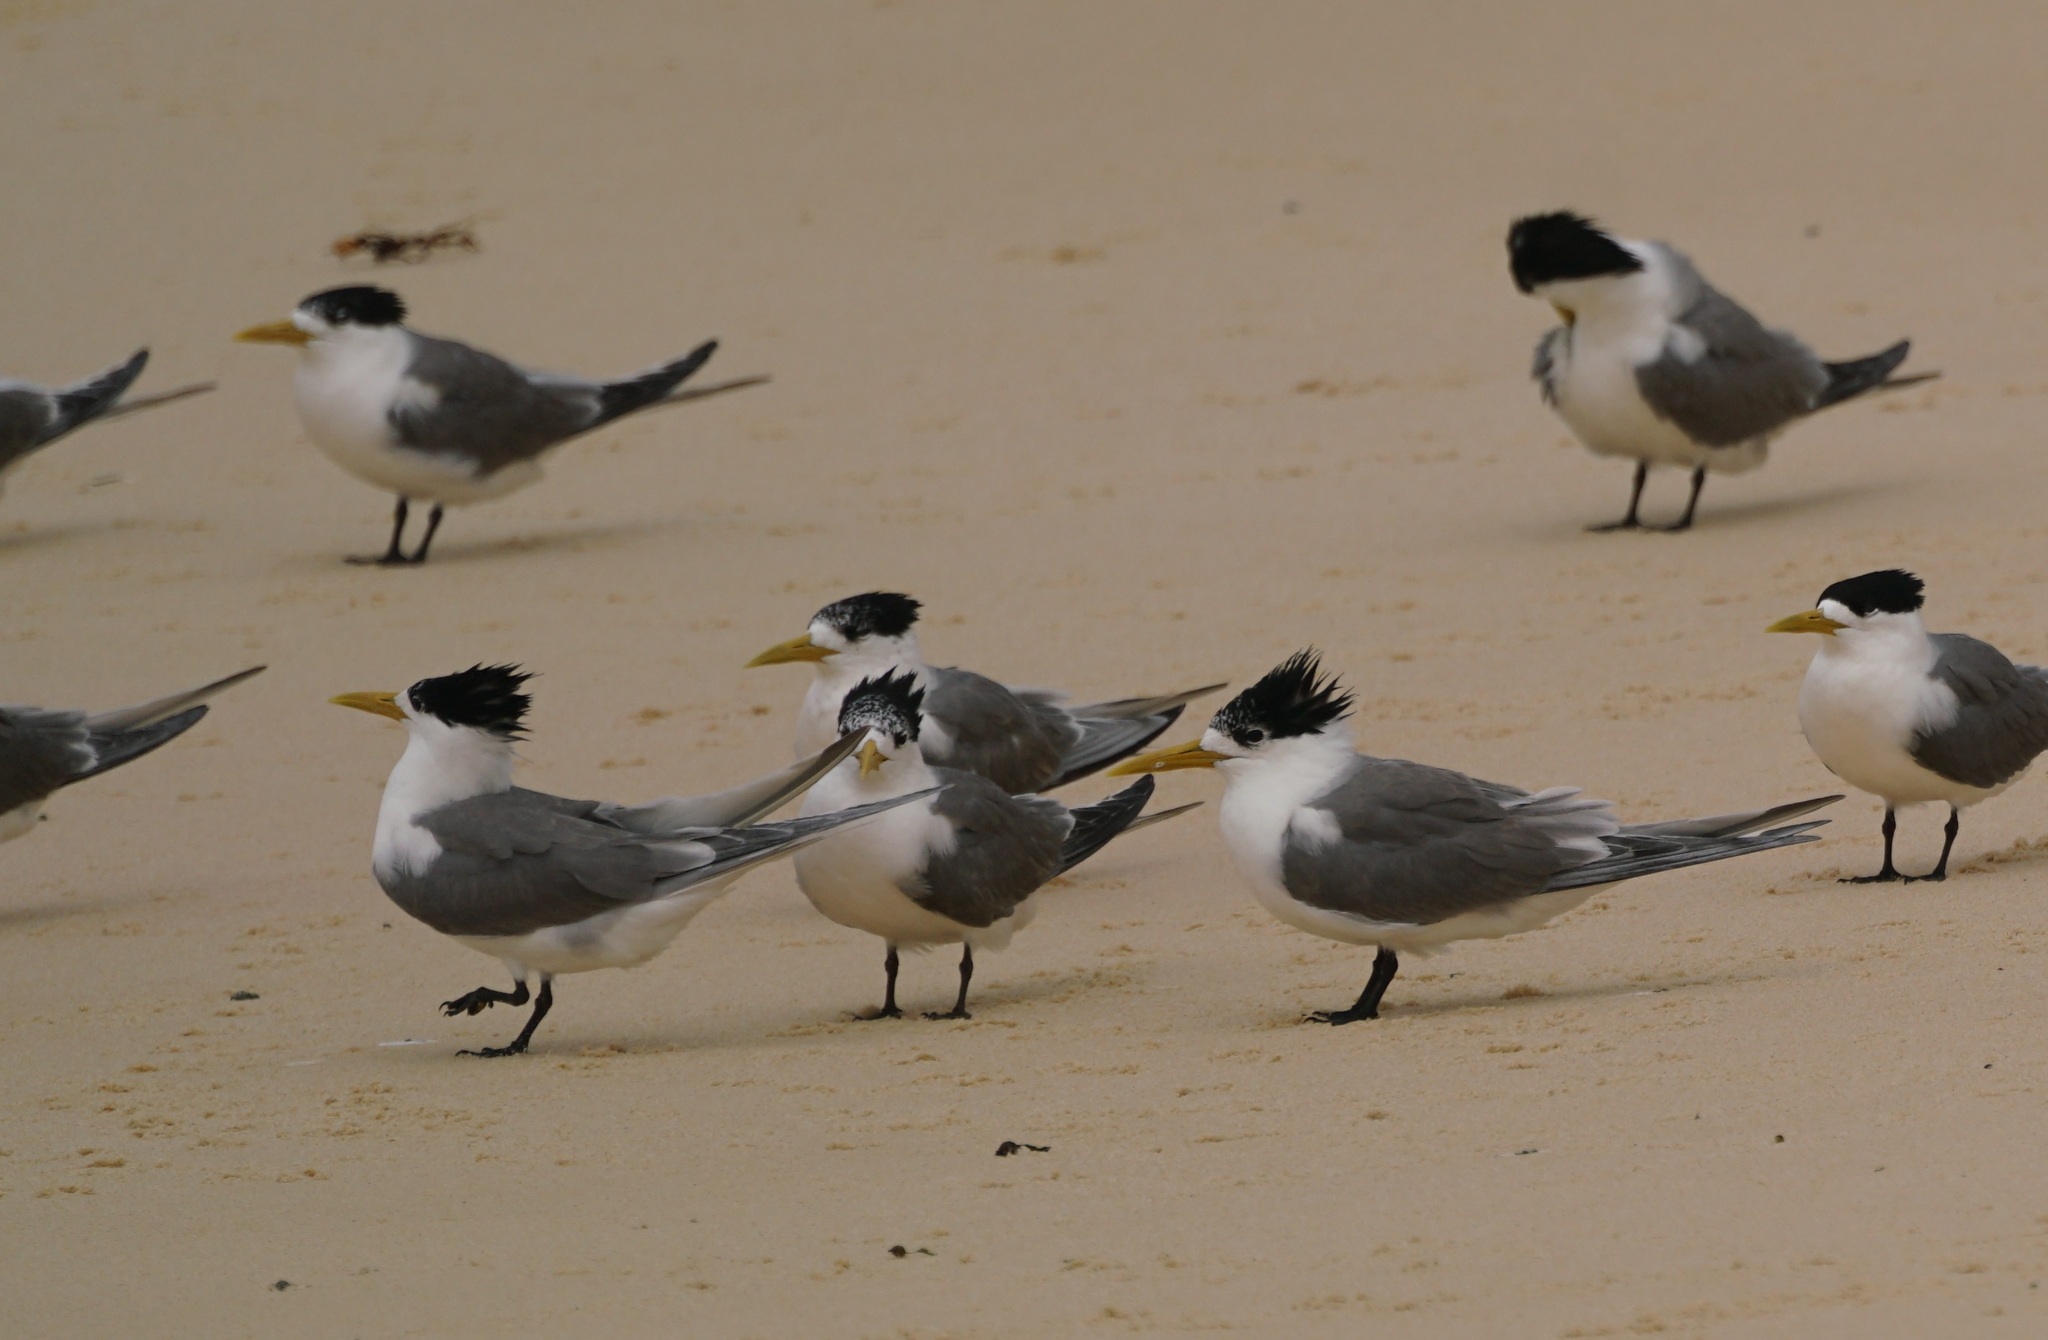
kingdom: Animalia
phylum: Chordata
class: Aves
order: Charadriiformes
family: Laridae
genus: Thalasseus
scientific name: Thalasseus bergii
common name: Greater crested tern
